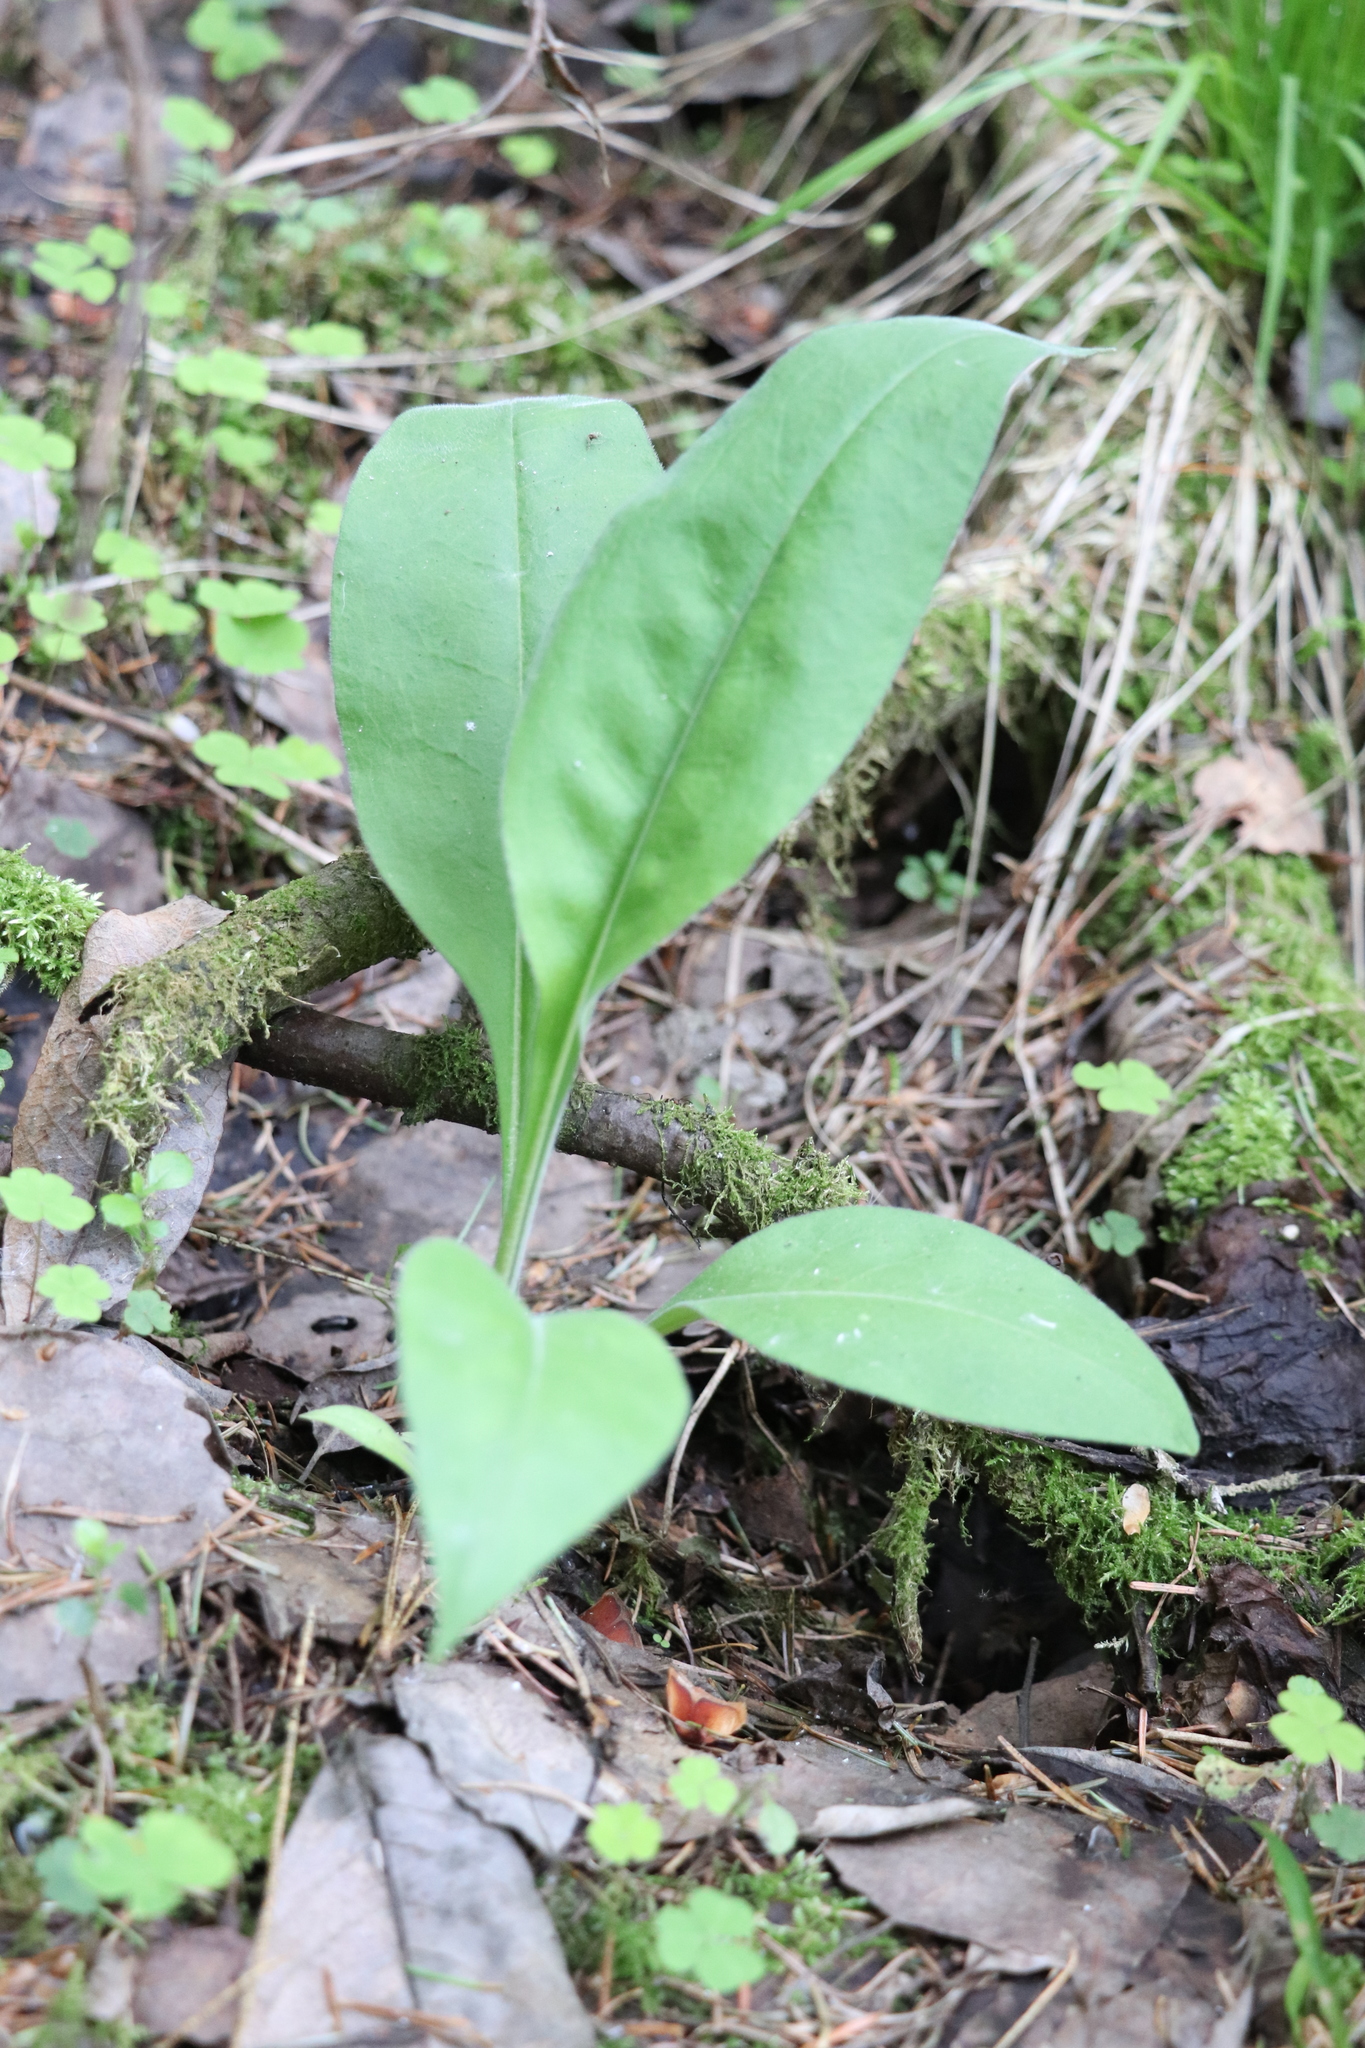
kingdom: Plantae
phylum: Tracheophyta
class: Magnoliopsida
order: Boraginales
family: Boraginaceae
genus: Pulmonaria
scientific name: Pulmonaria mollis
